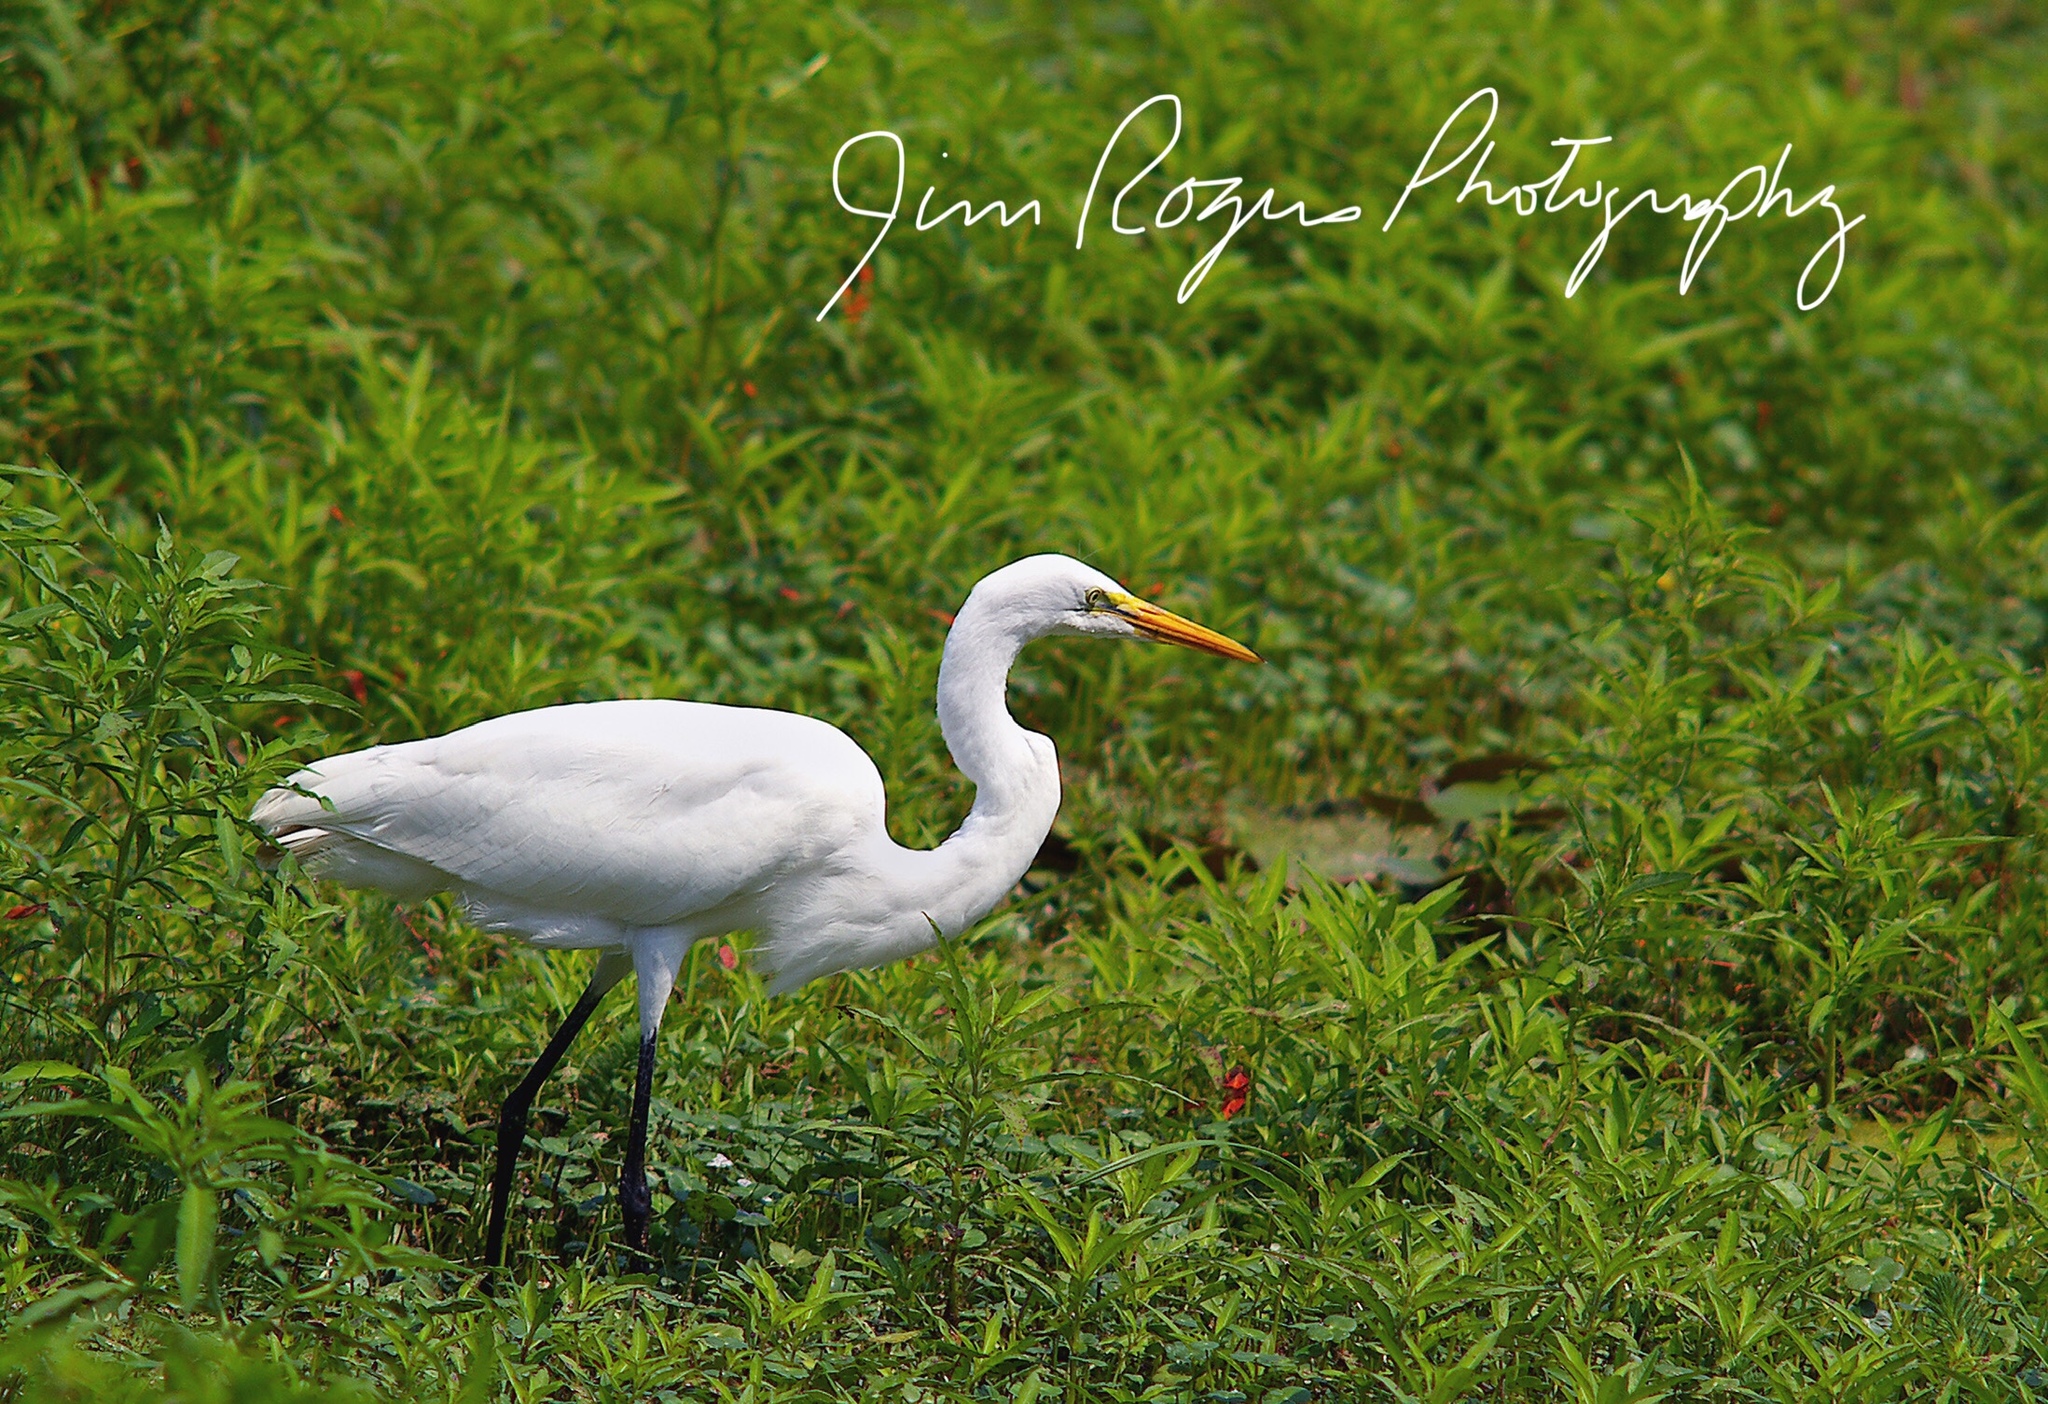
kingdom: Animalia
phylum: Chordata
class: Aves
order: Pelecaniformes
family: Ardeidae
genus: Ardea
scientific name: Ardea alba
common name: Great egret
